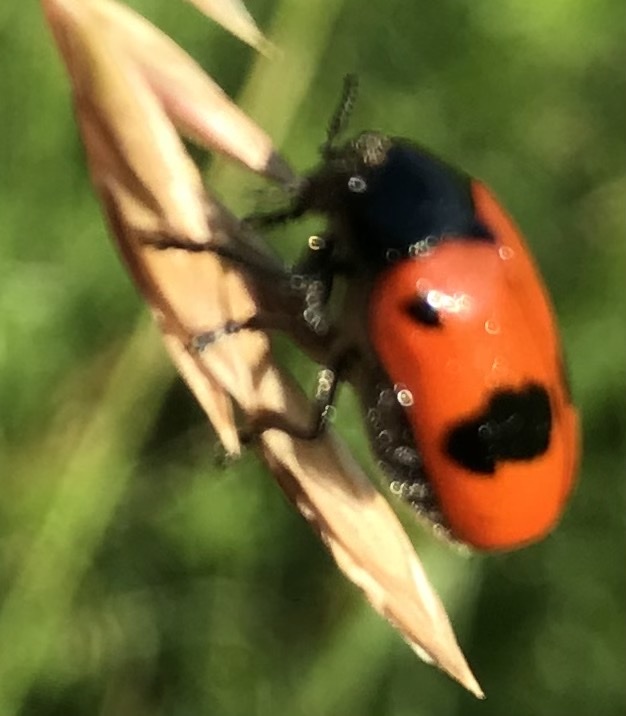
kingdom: Animalia
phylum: Arthropoda
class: Insecta
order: Coleoptera
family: Chrysomelidae
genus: Clytra
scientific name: Clytra laeviuscula
